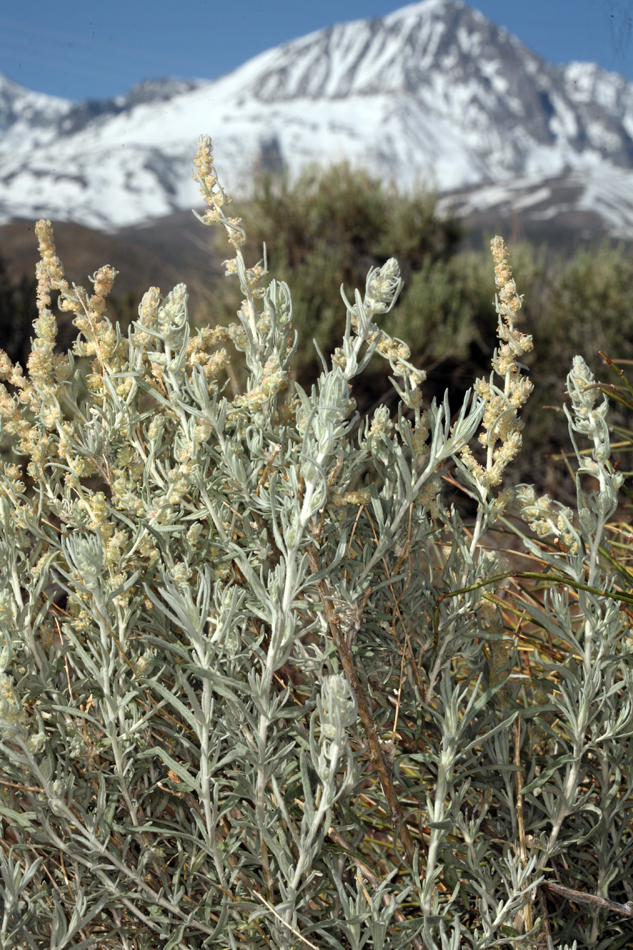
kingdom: Plantae
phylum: Tracheophyta
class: Magnoliopsida
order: Caryophyllales
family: Amaranthaceae
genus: Krascheninnikovia
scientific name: Krascheninnikovia lanata
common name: Winterfat
